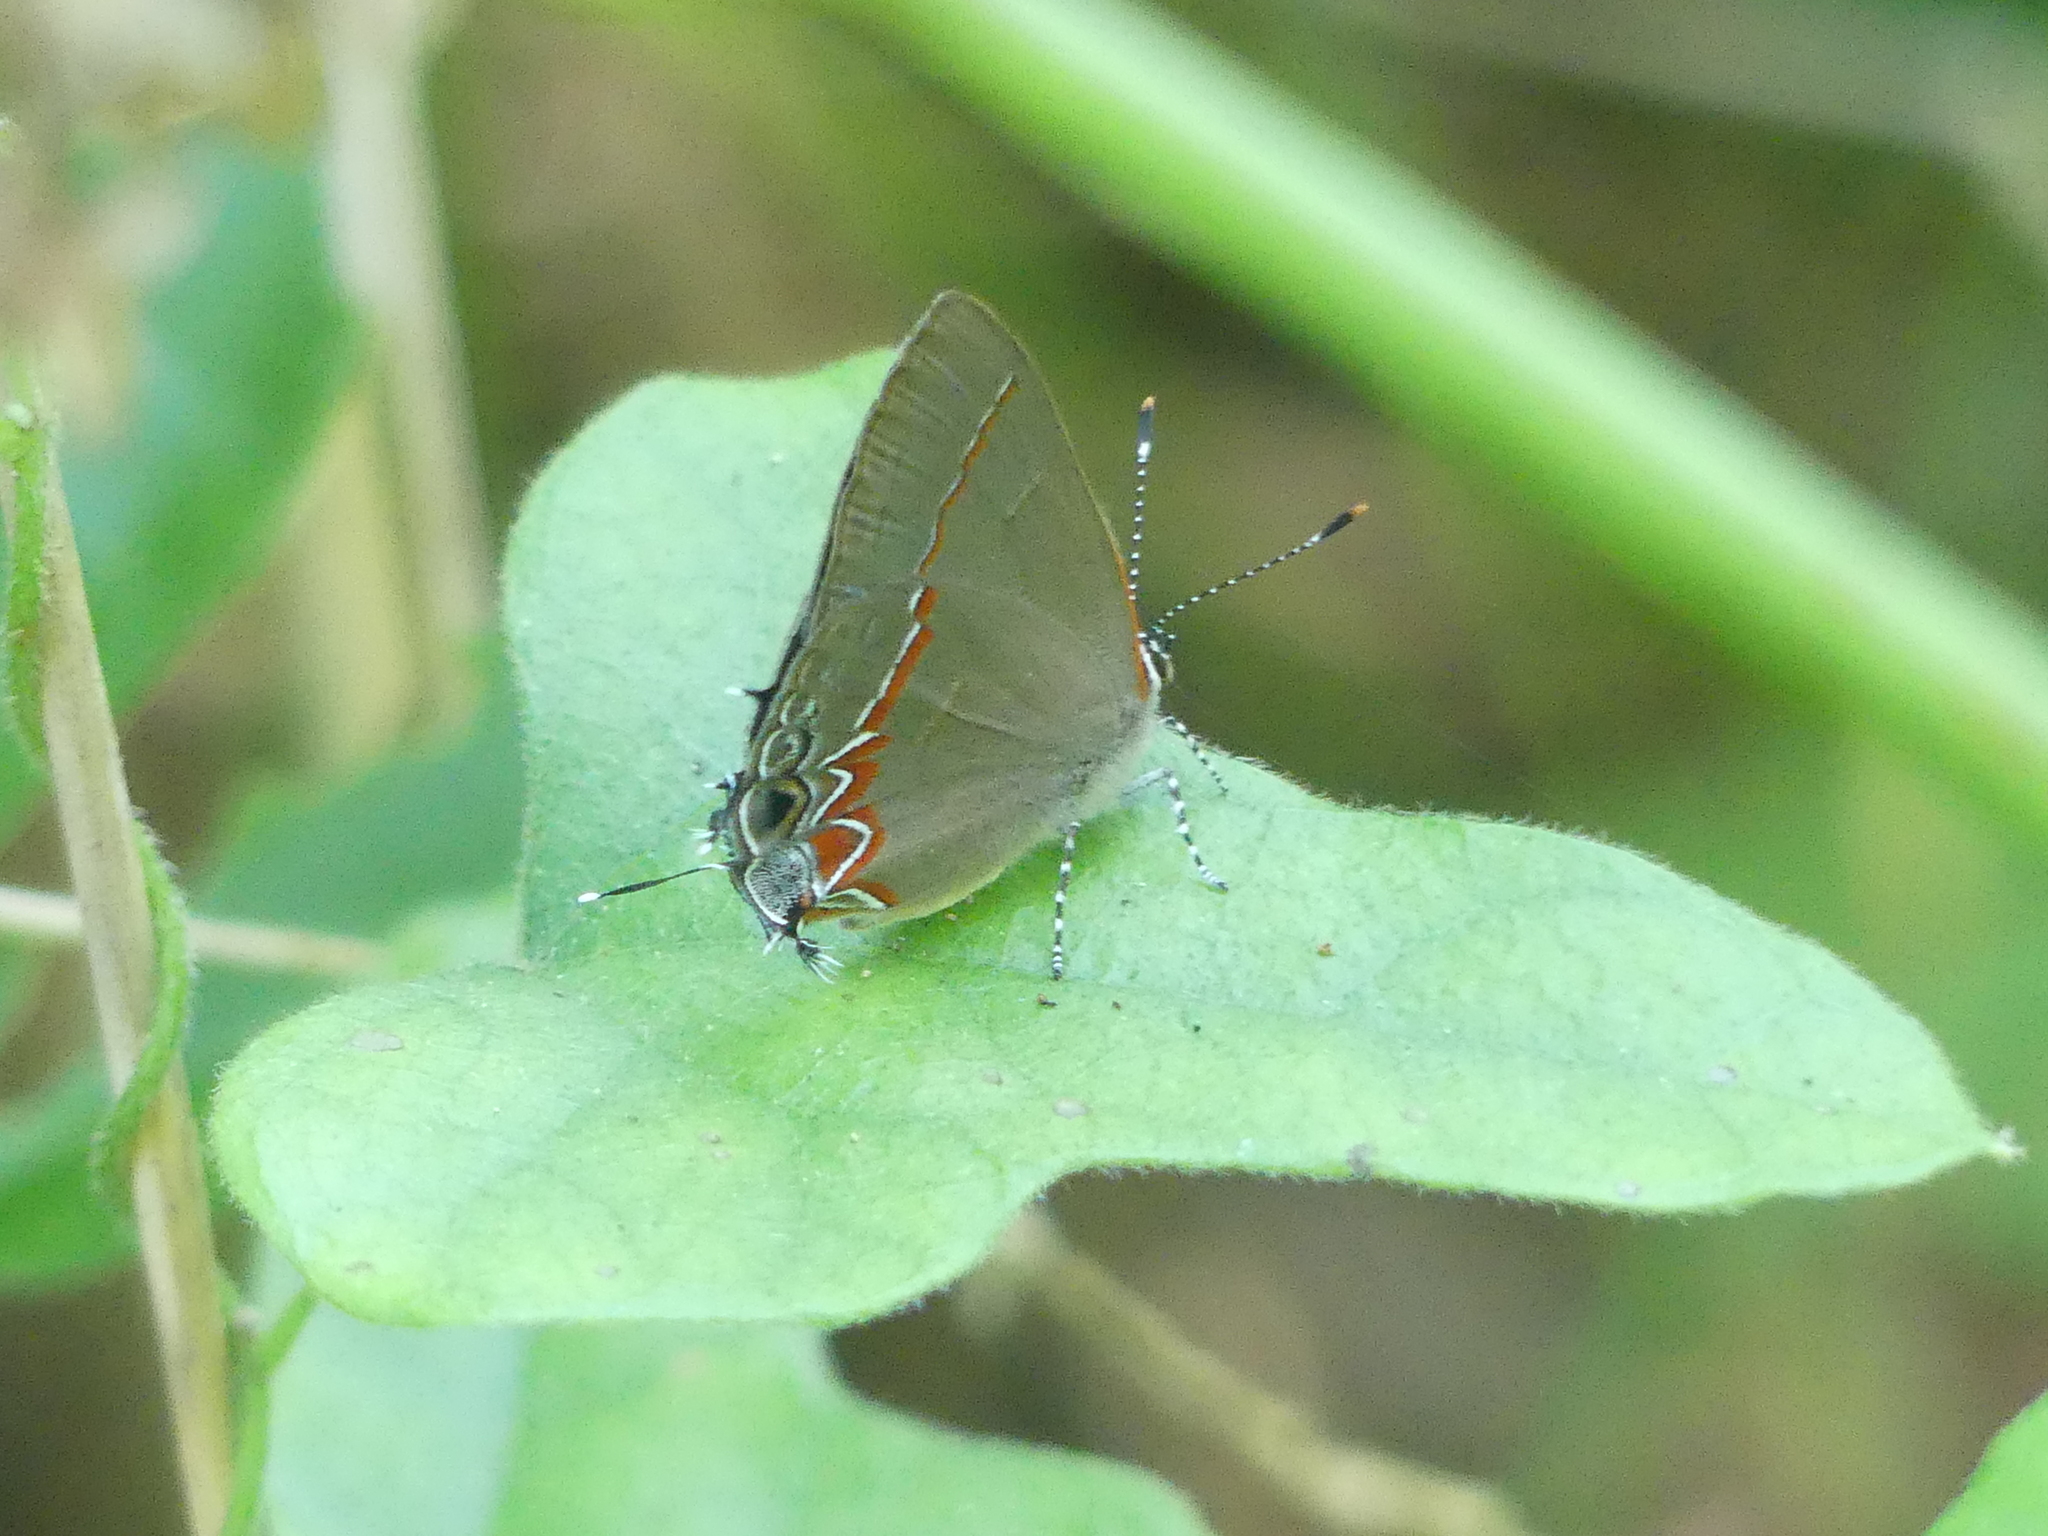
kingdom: Animalia
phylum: Arthropoda
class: Insecta
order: Lepidoptera
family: Lycaenidae
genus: Calycopis
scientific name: Calycopis isobeon
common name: Dusky-blue groundstreak
